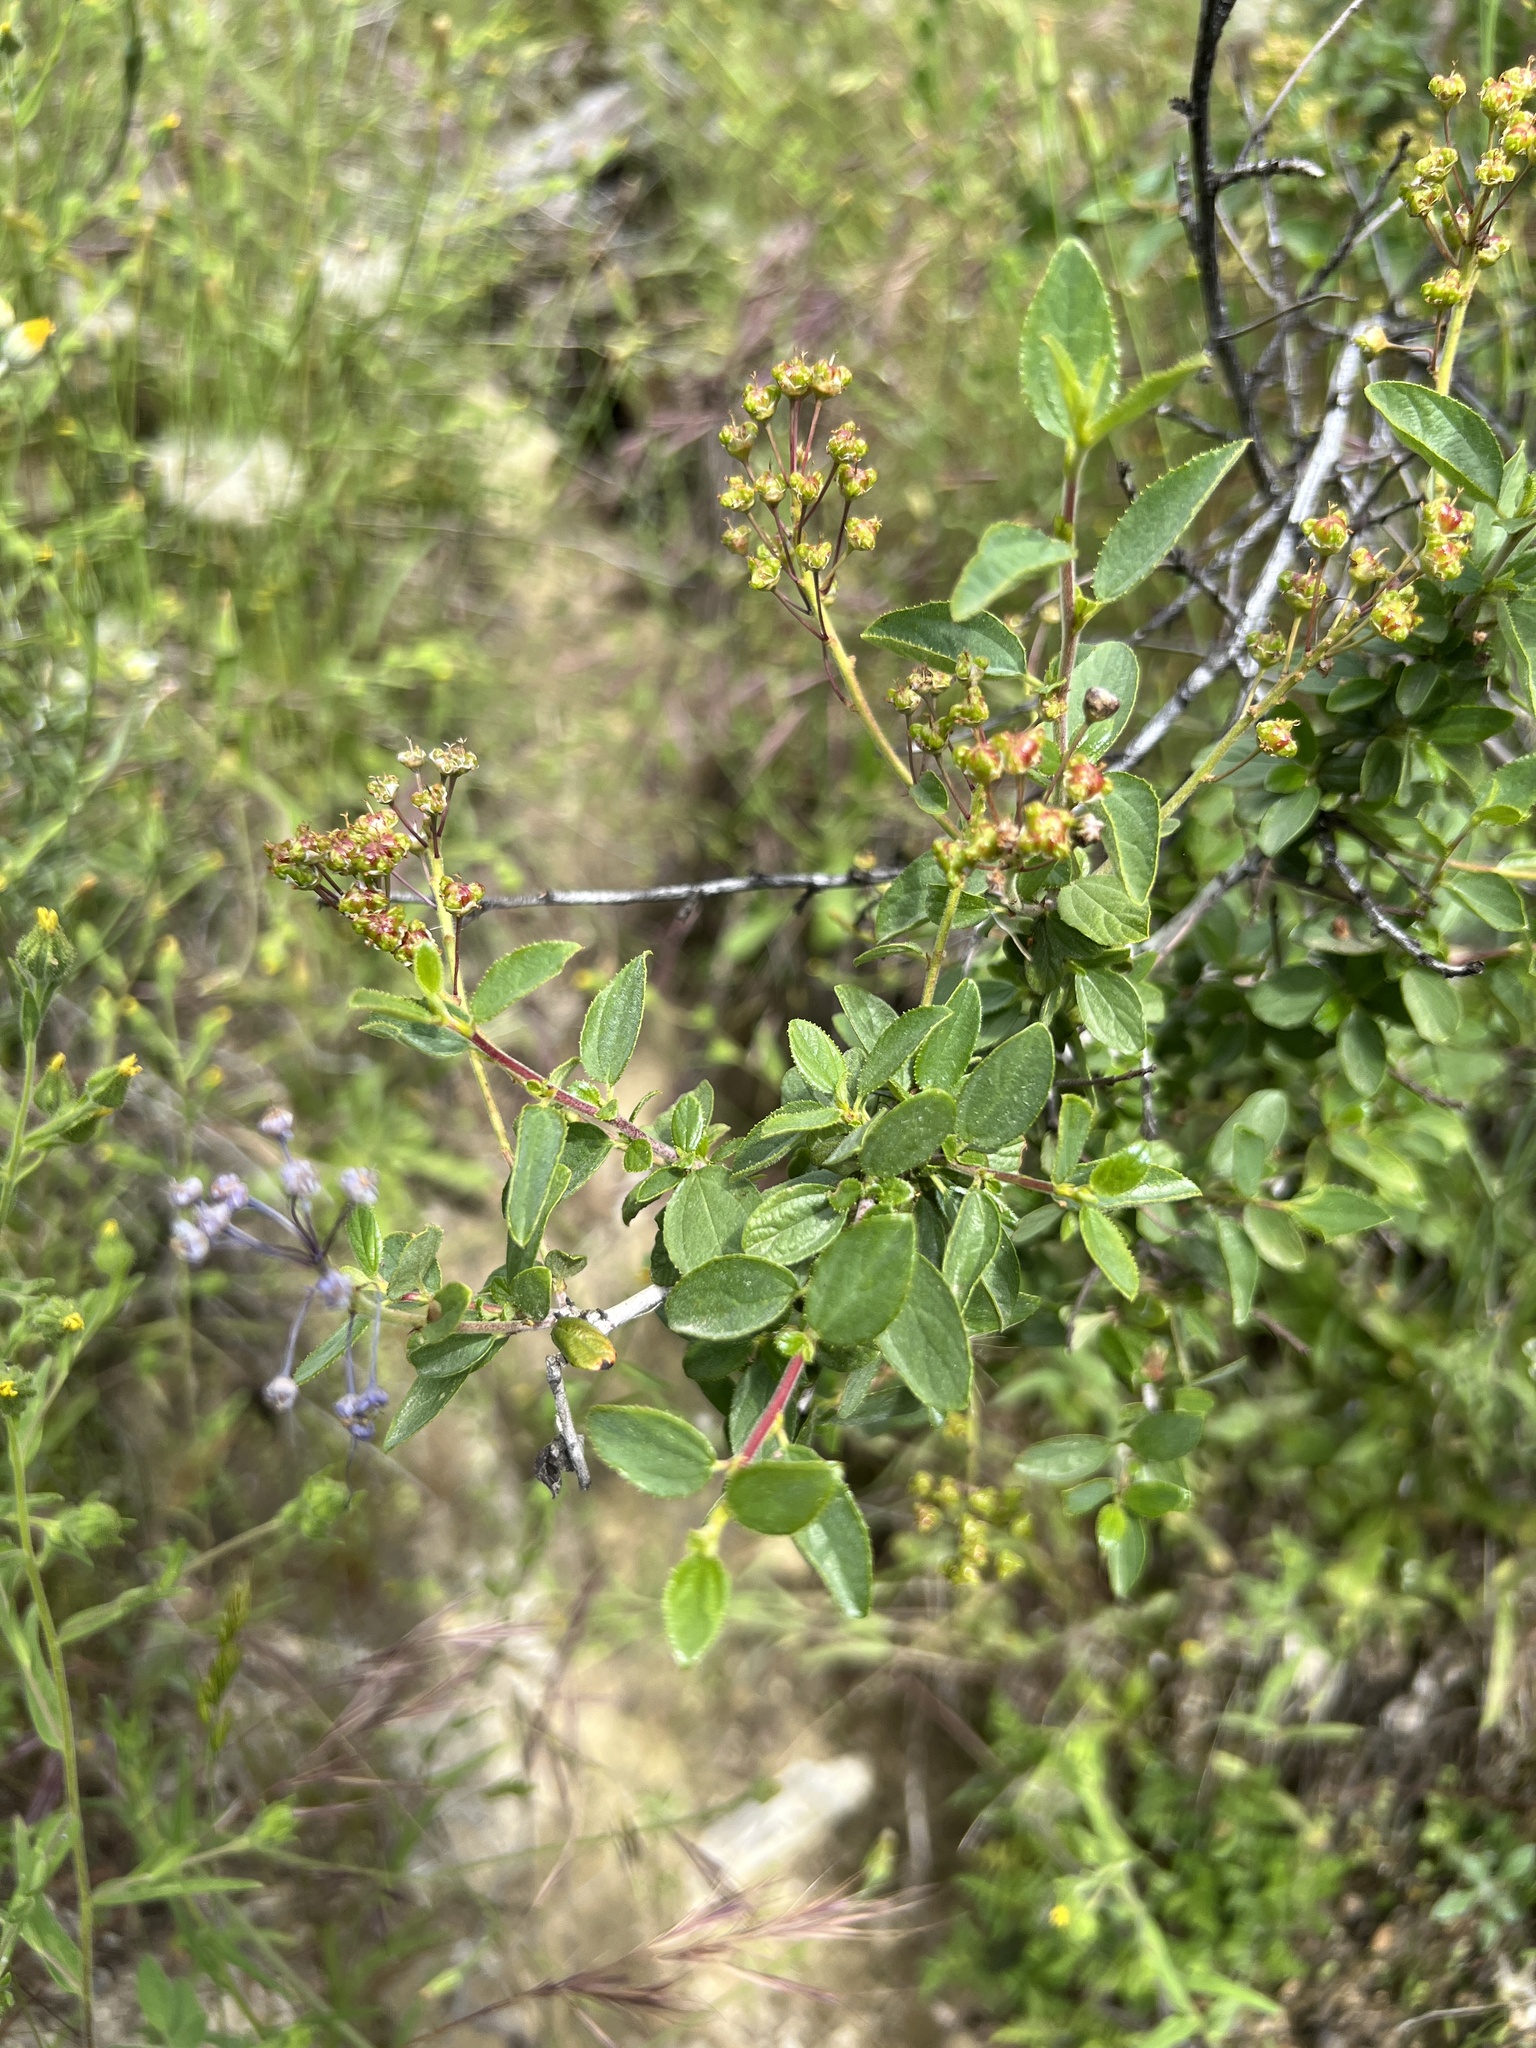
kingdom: Plantae
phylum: Tracheophyta
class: Magnoliopsida
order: Rosales
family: Rhamnaceae
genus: Ceanothus
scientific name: Ceanothus lemmonii
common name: Lemmon's ceanothus
